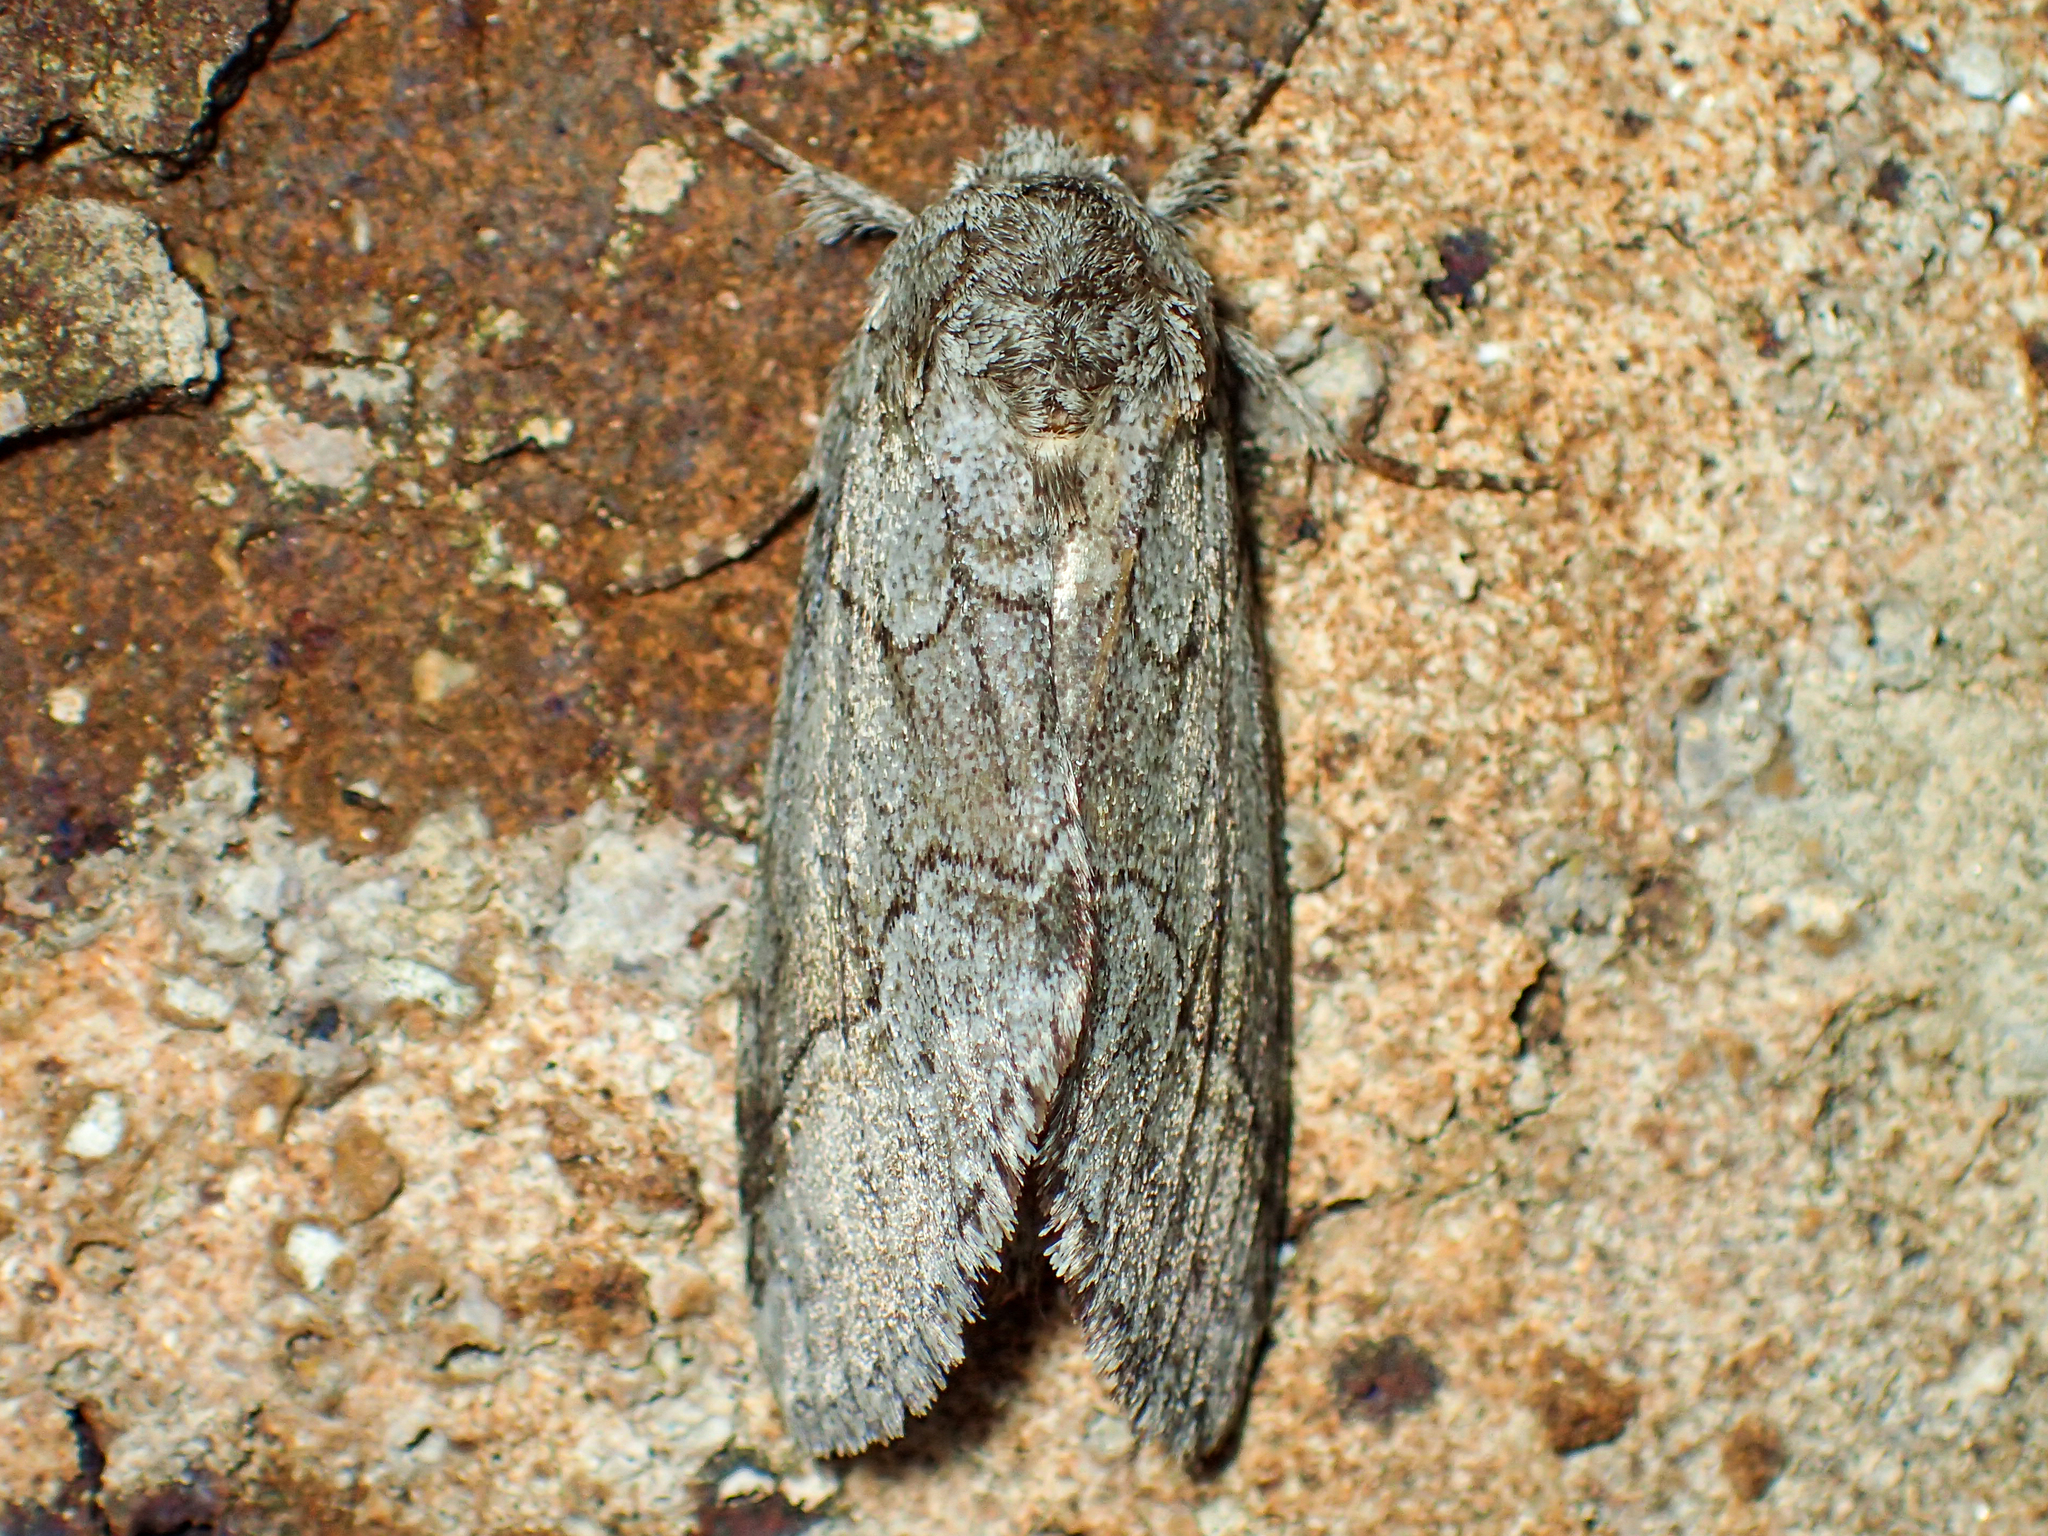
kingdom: Animalia
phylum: Arthropoda
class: Insecta
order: Lepidoptera
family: Notodontidae
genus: Lochmaeus
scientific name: Lochmaeus bilineata
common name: Double-lined prominent
